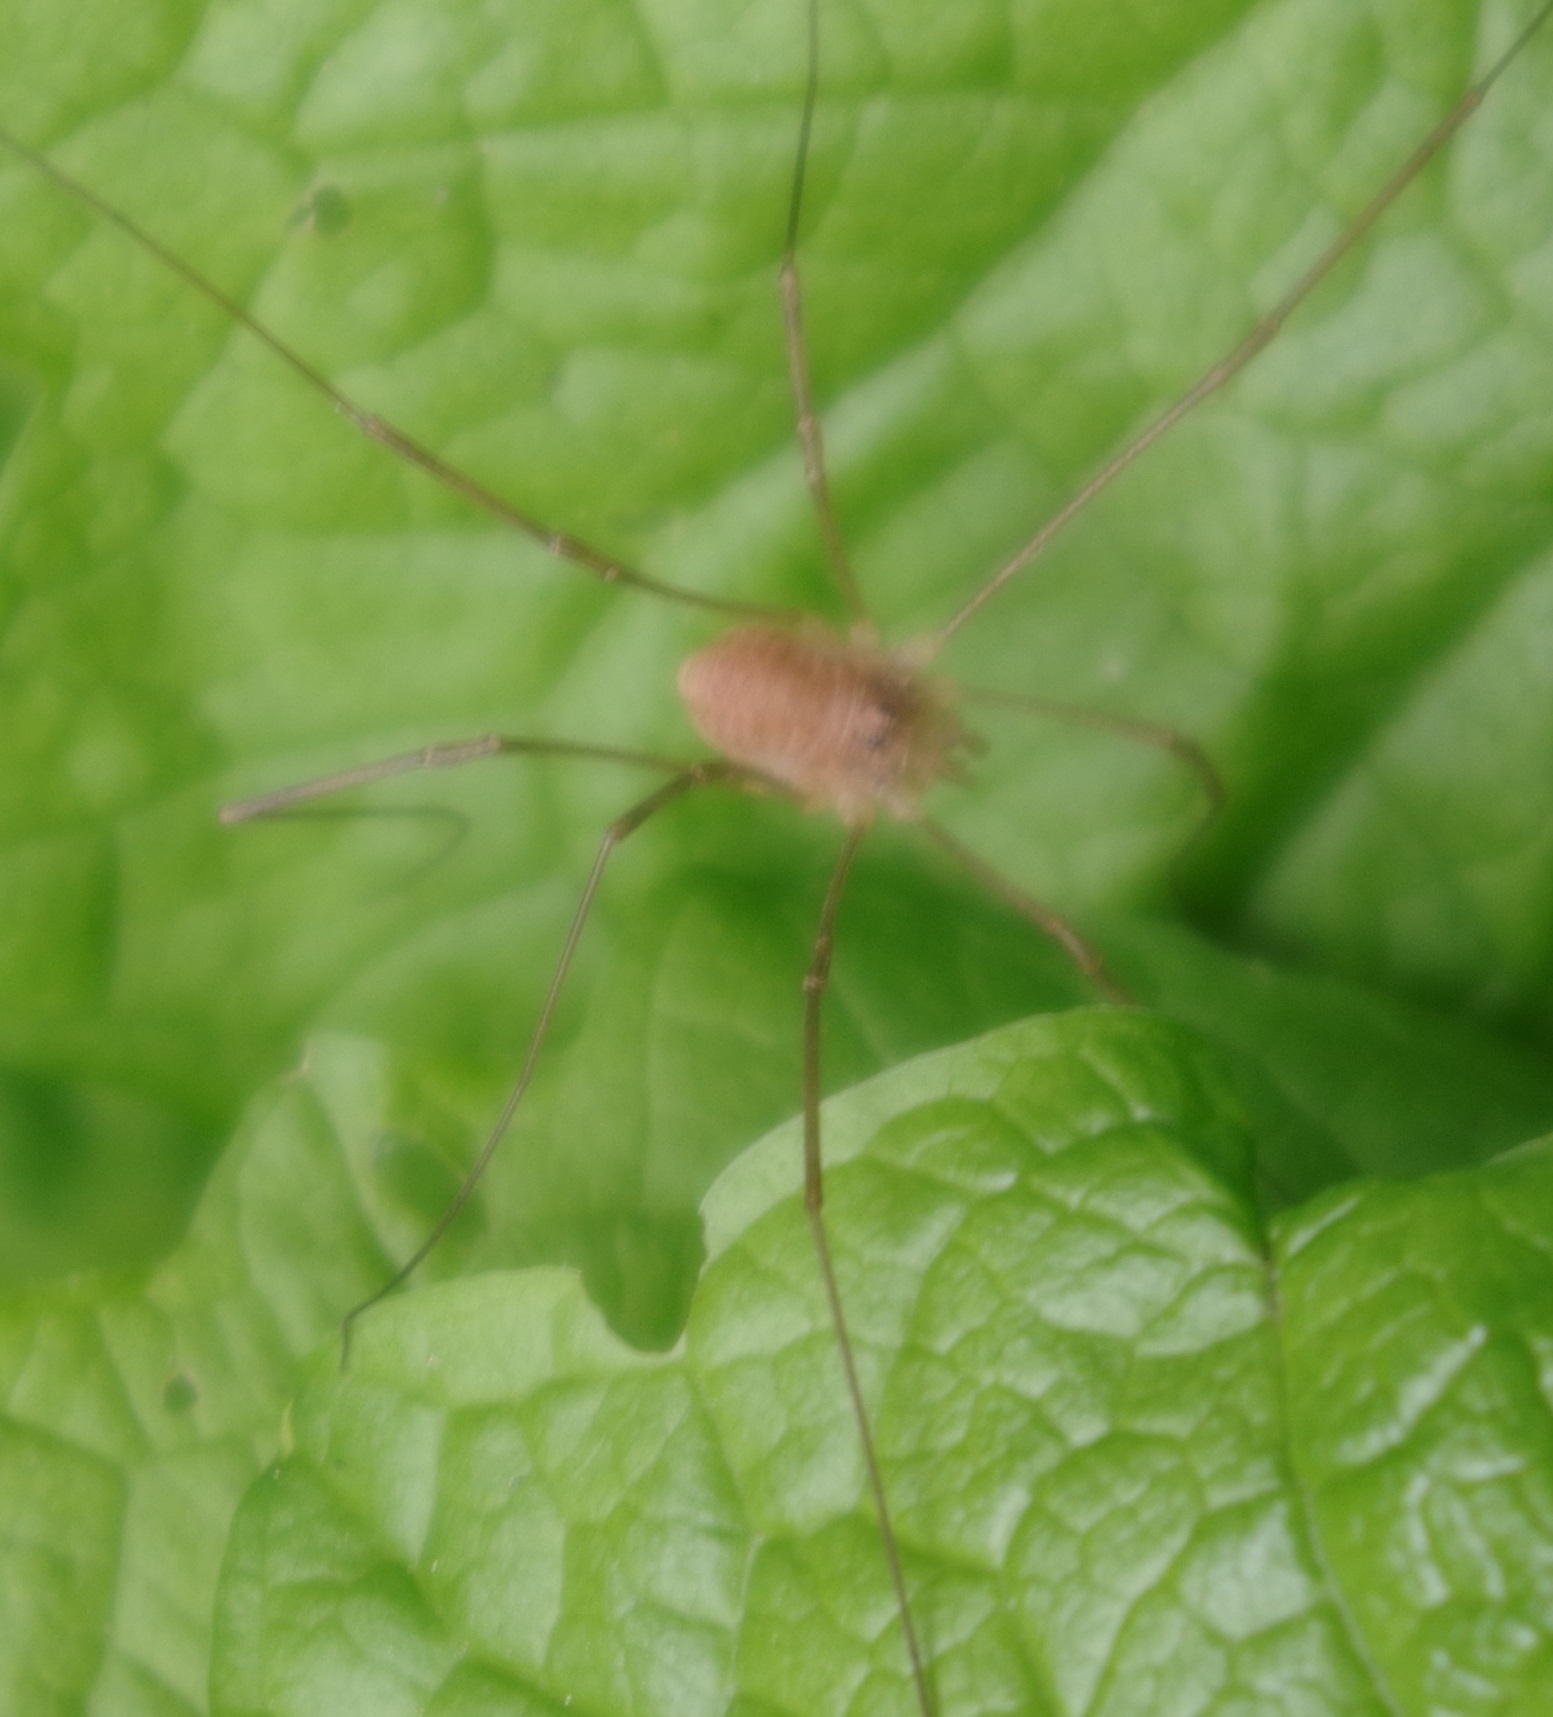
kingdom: Animalia
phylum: Arthropoda
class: Arachnida
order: Opiliones
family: Phalangiidae
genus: Rilaena
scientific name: Rilaena triangularis
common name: Spring harvestman
